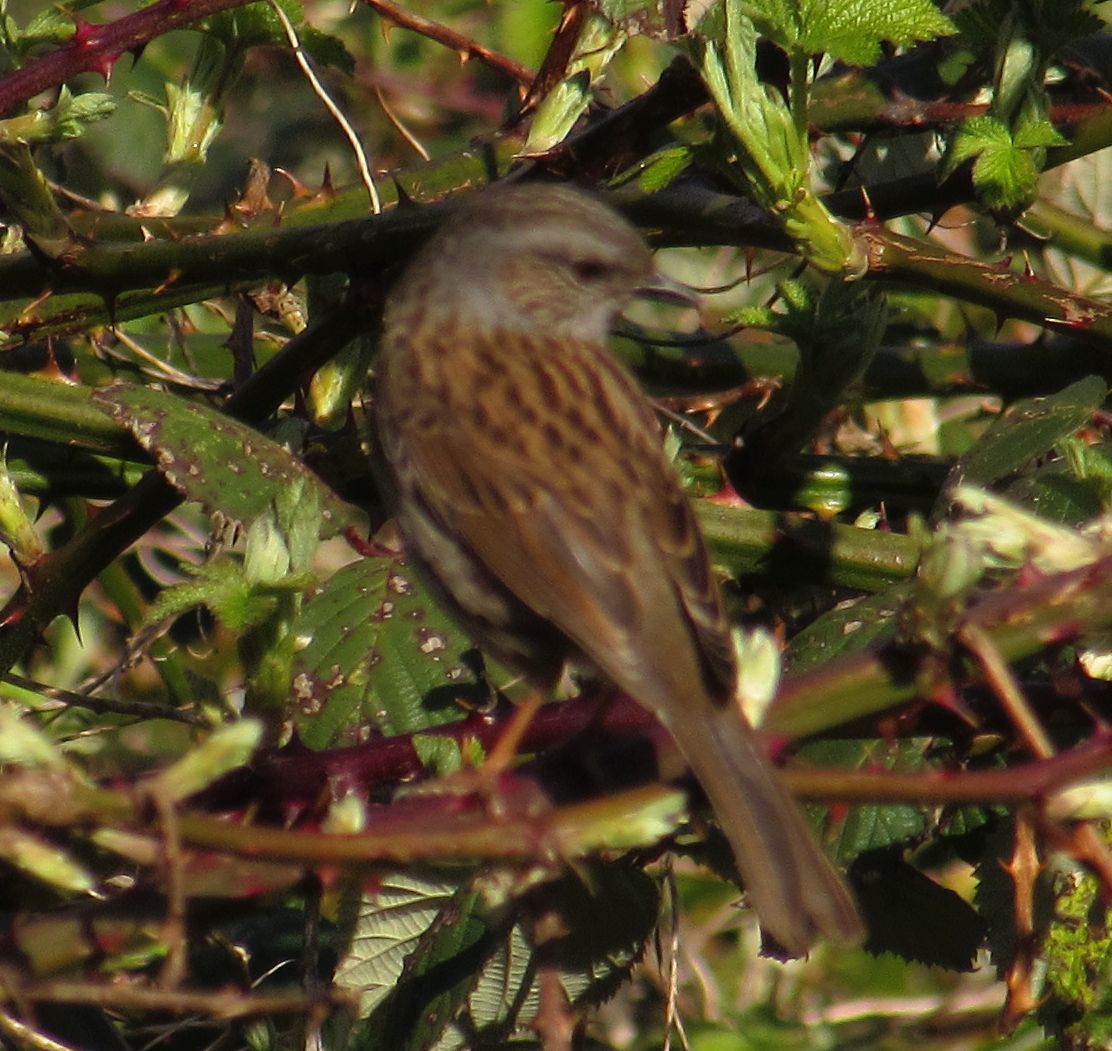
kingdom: Animalia
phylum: Chordata
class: Aves
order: Passeriformes
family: Prunellidae
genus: Prunella
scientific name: Prunella modularis
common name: Dunnock
